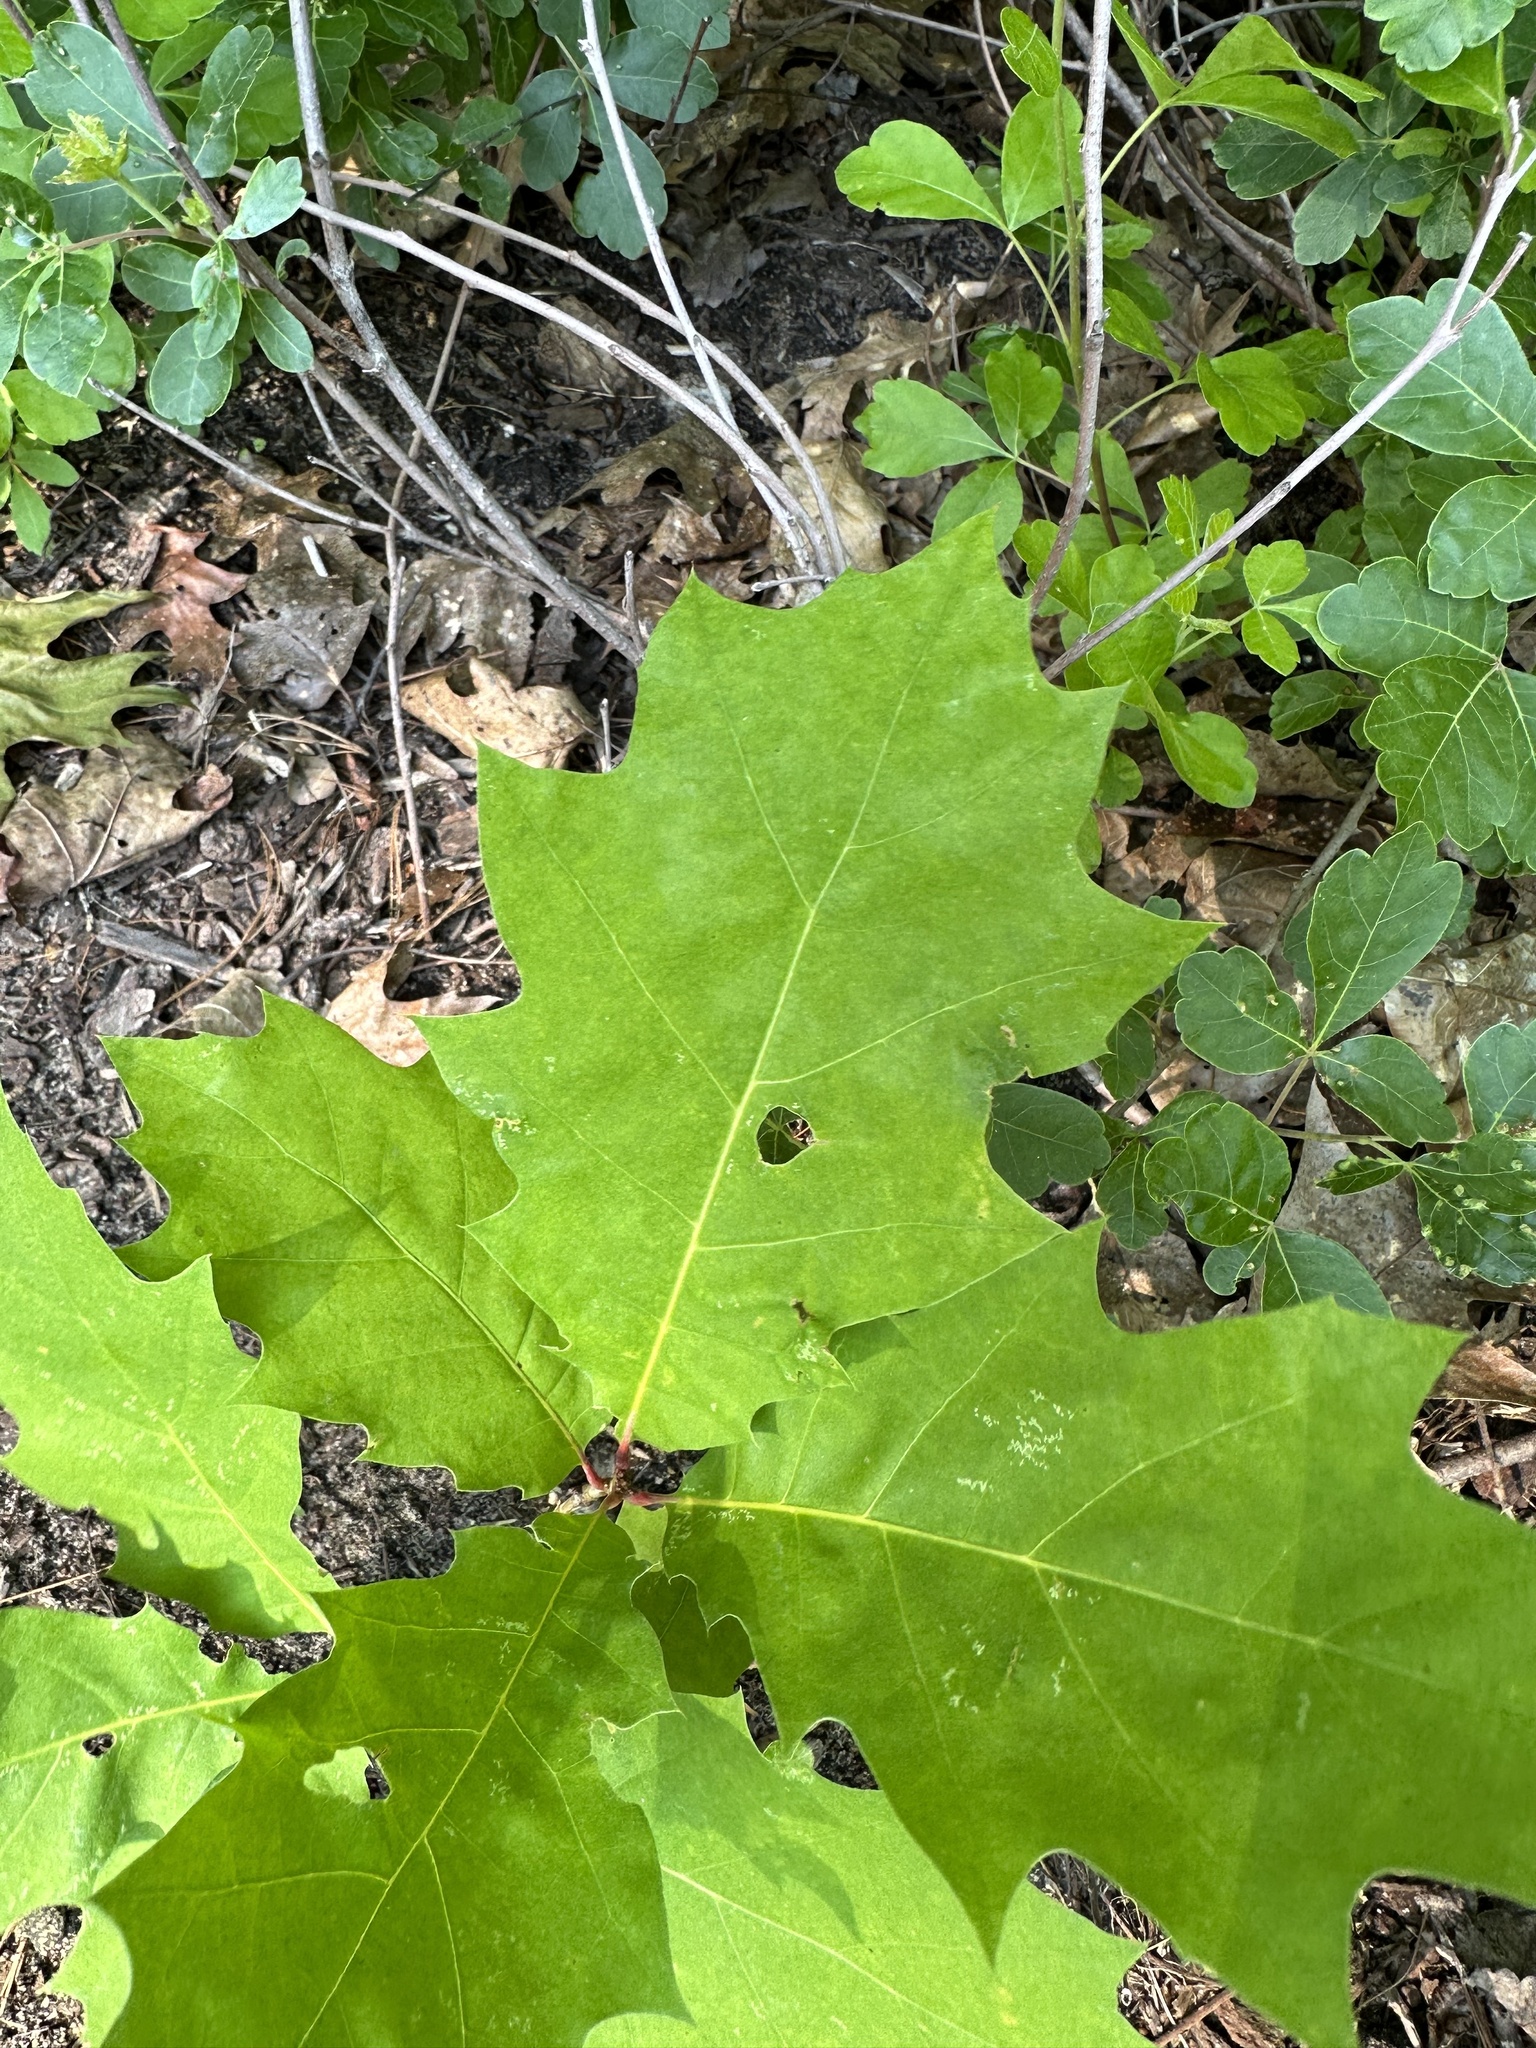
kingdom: Plantae
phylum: Tracheophyta
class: Magnoliopsida
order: Fagales
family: Fagaceae
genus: Quercus
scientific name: Quercus rubra
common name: Red oak
